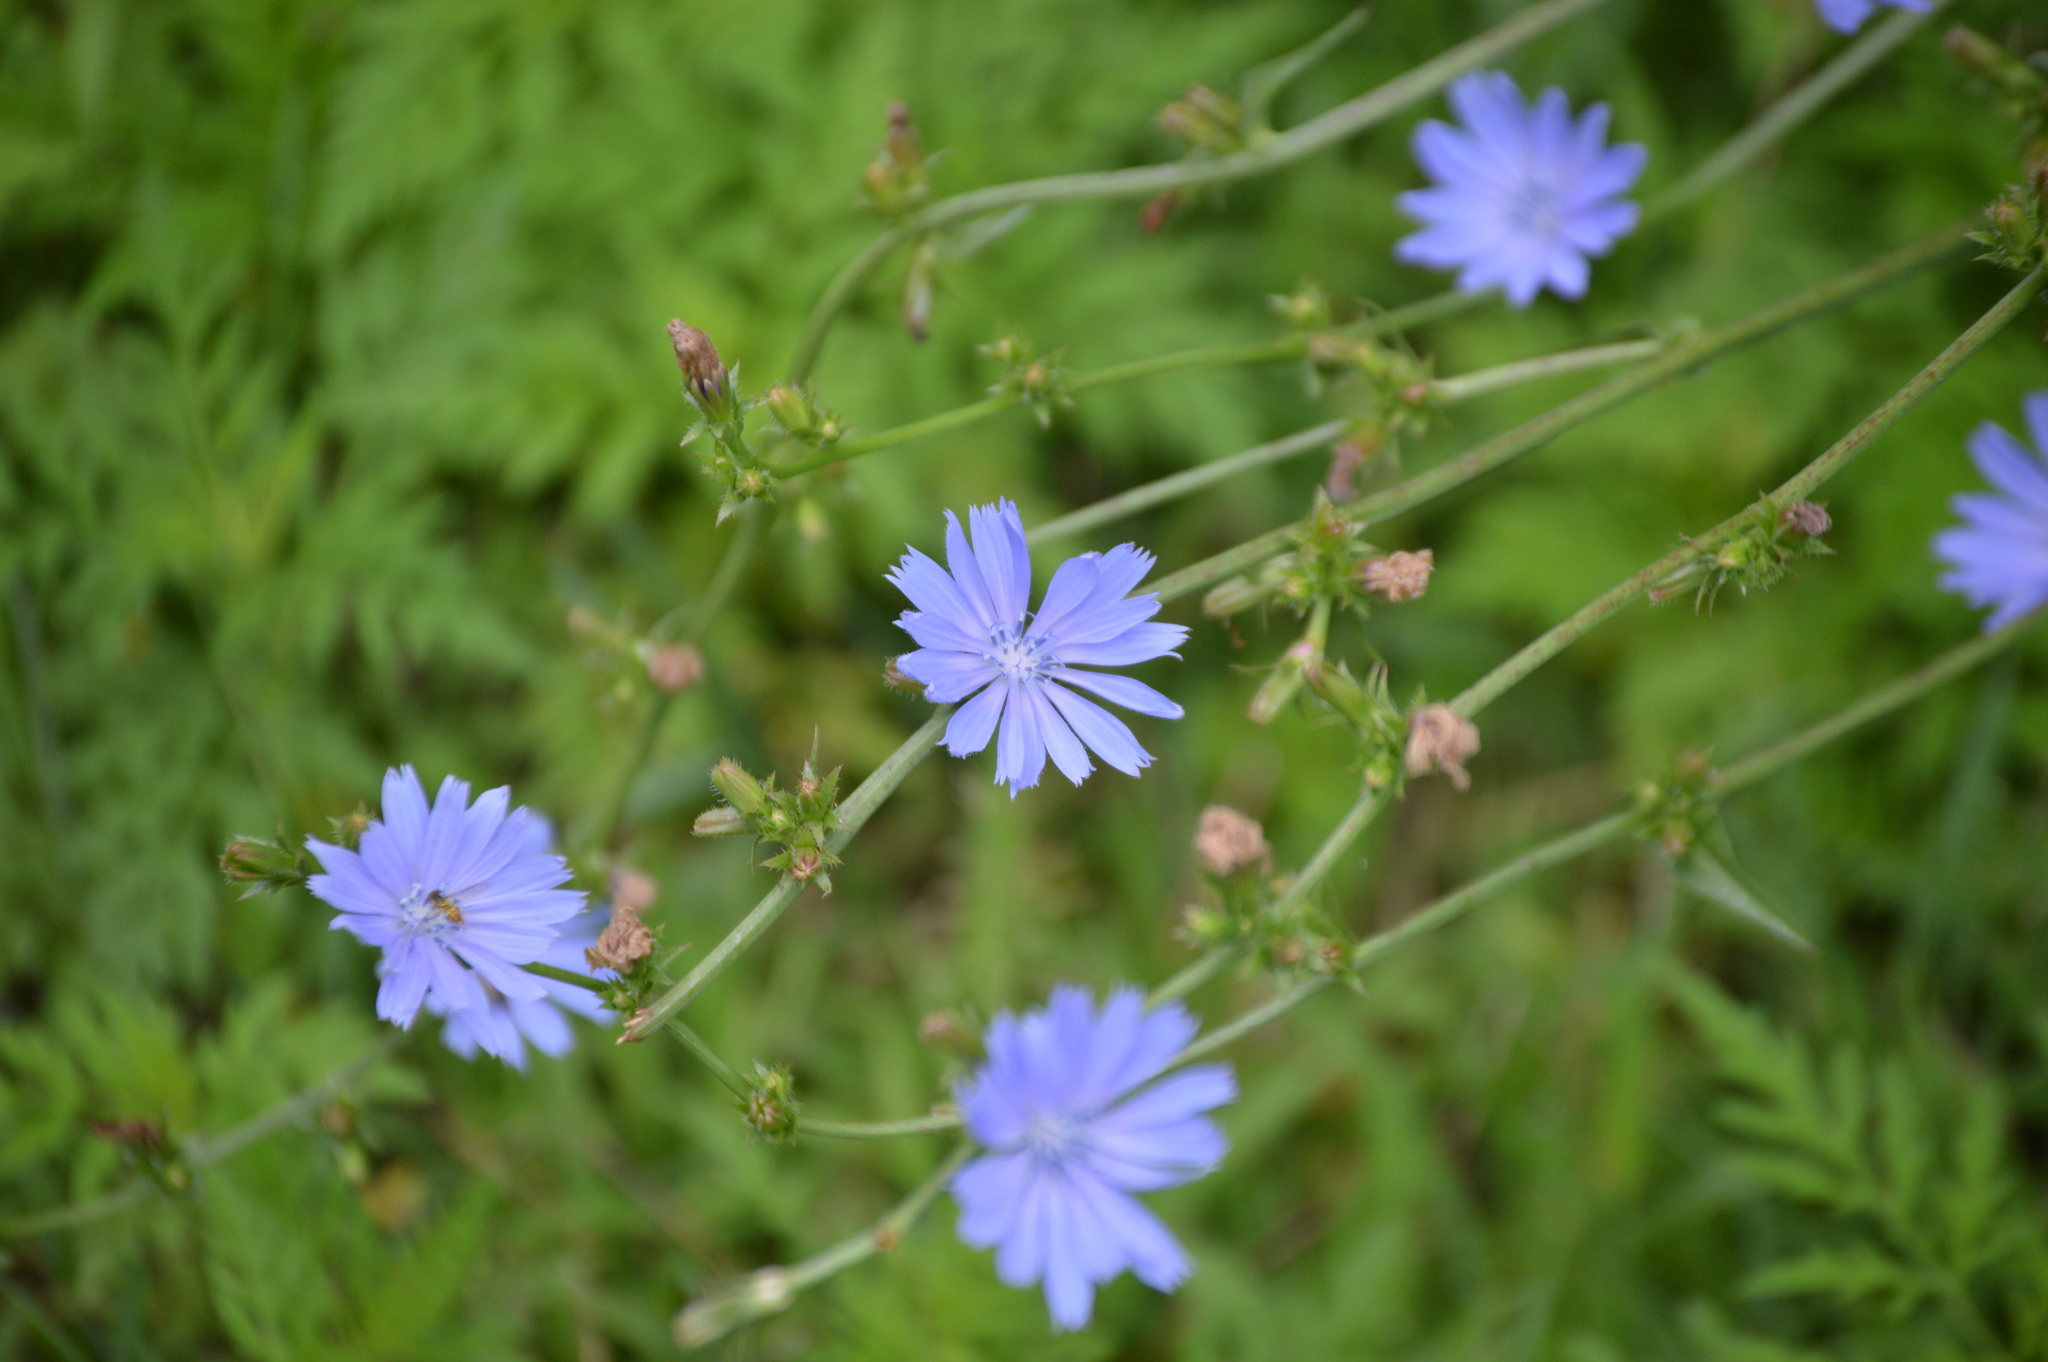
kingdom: Plantae
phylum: Tracheophyta
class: Magnoliopsida
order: Asterales
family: Asteraceae
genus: Cichorium
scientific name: Cichorium intybus
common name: Chicory
